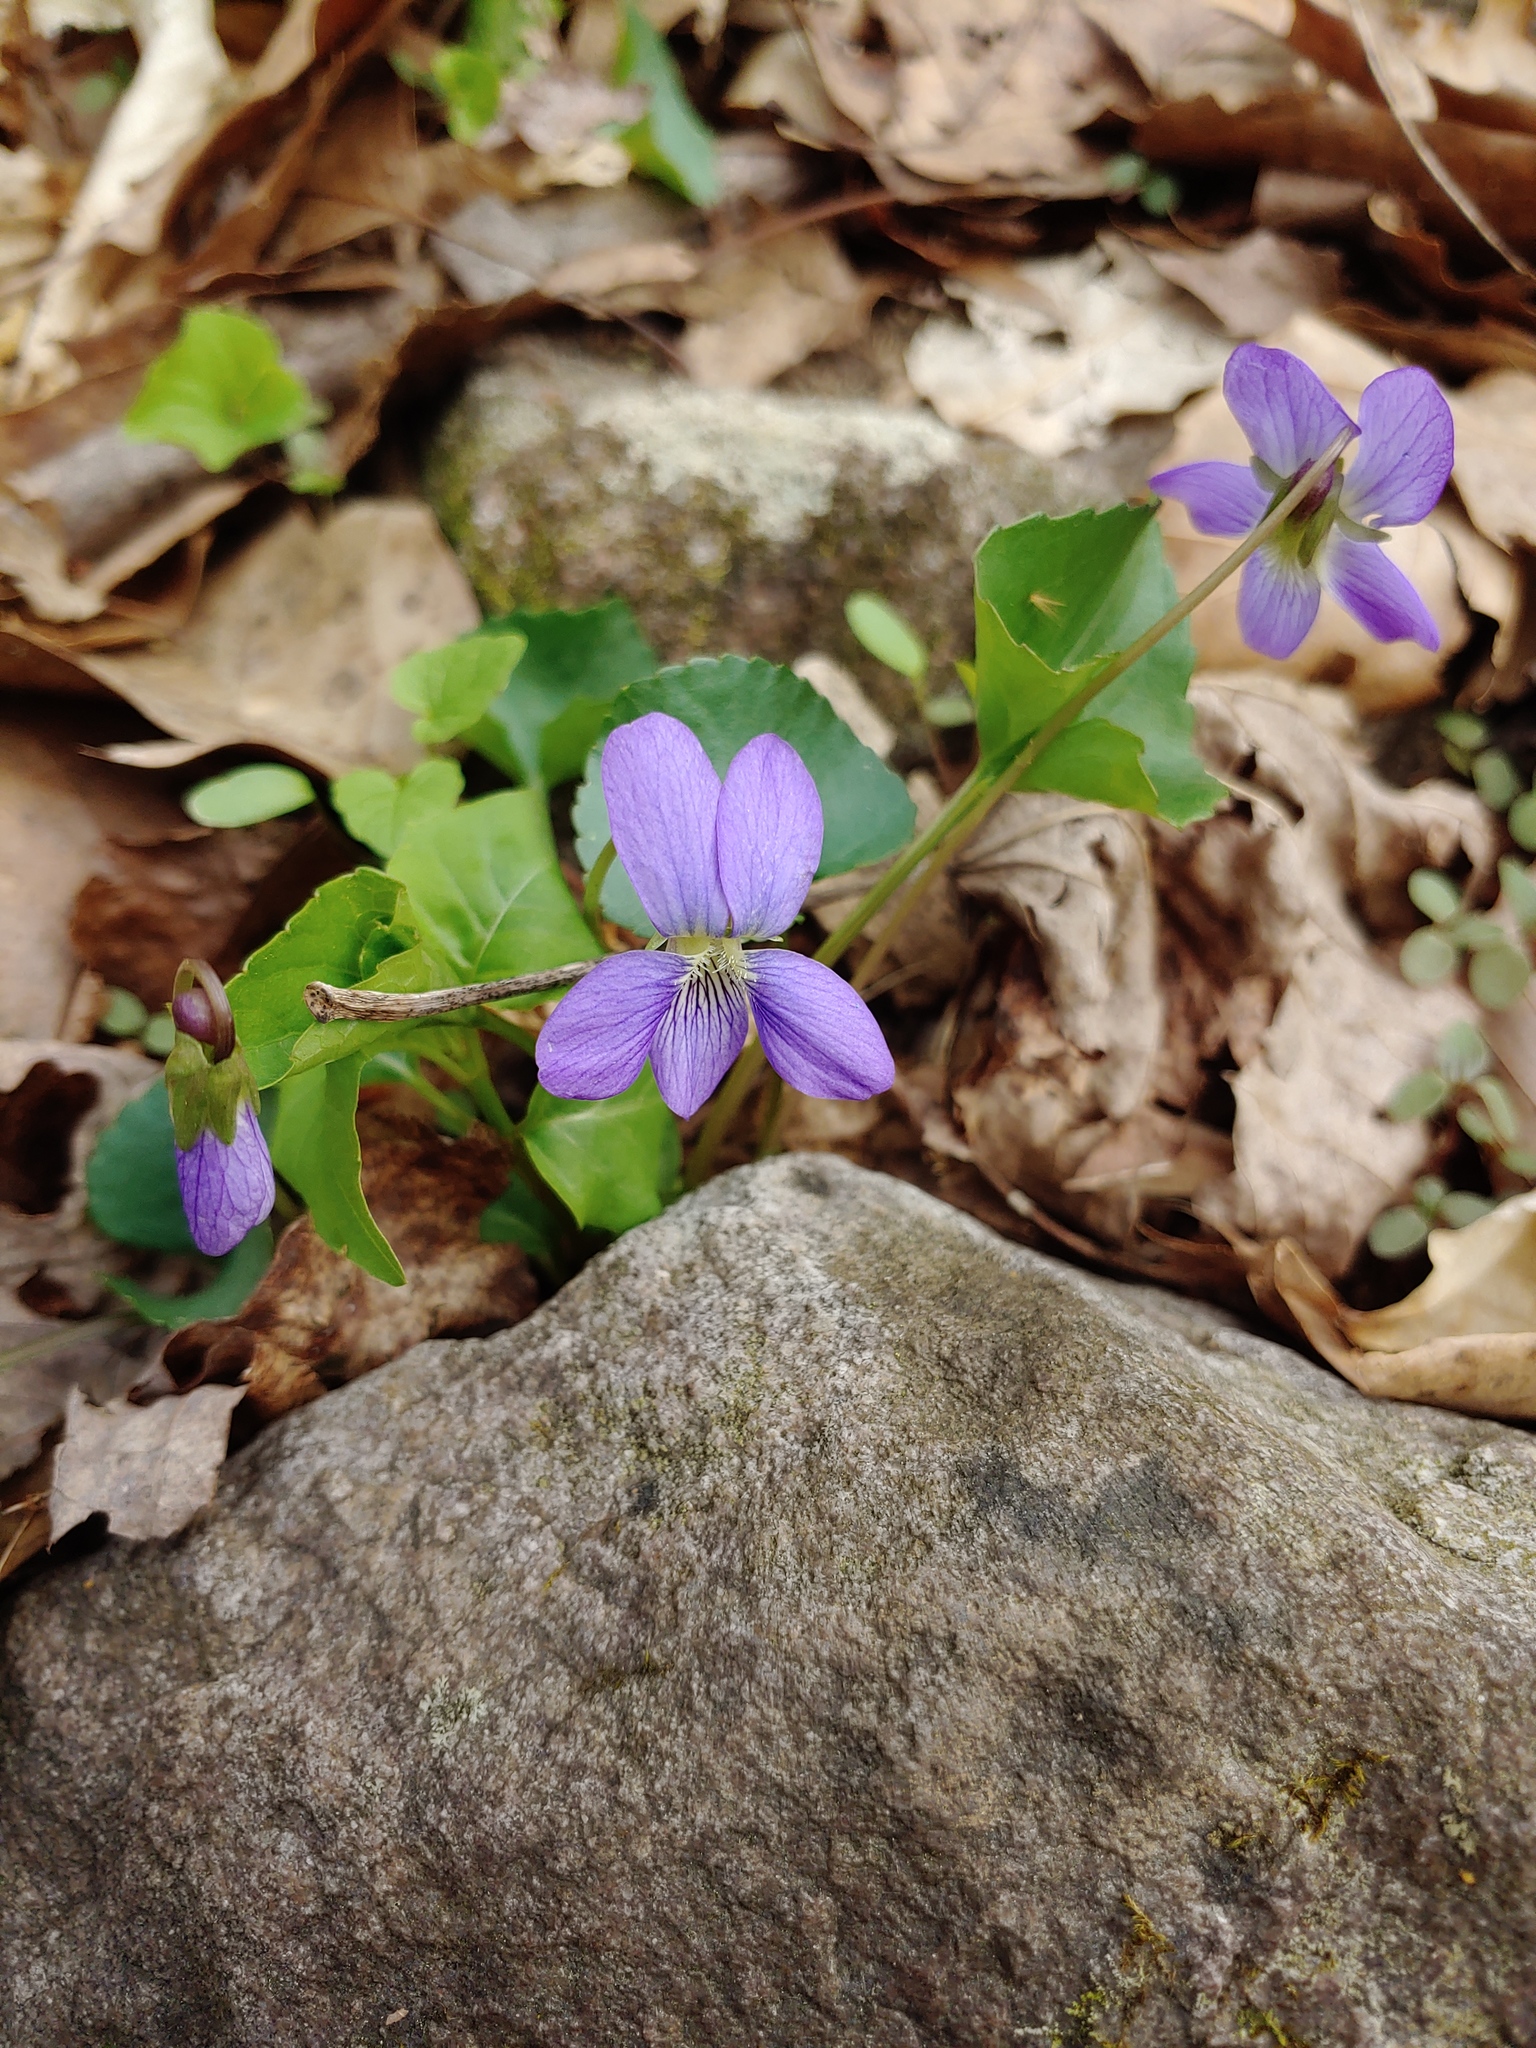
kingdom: Plantae
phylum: Tracheophyta
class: Magnoliopsida
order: Malpighiales
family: Violaceae
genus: Viola
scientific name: Viola sororia
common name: Dooryard violet
